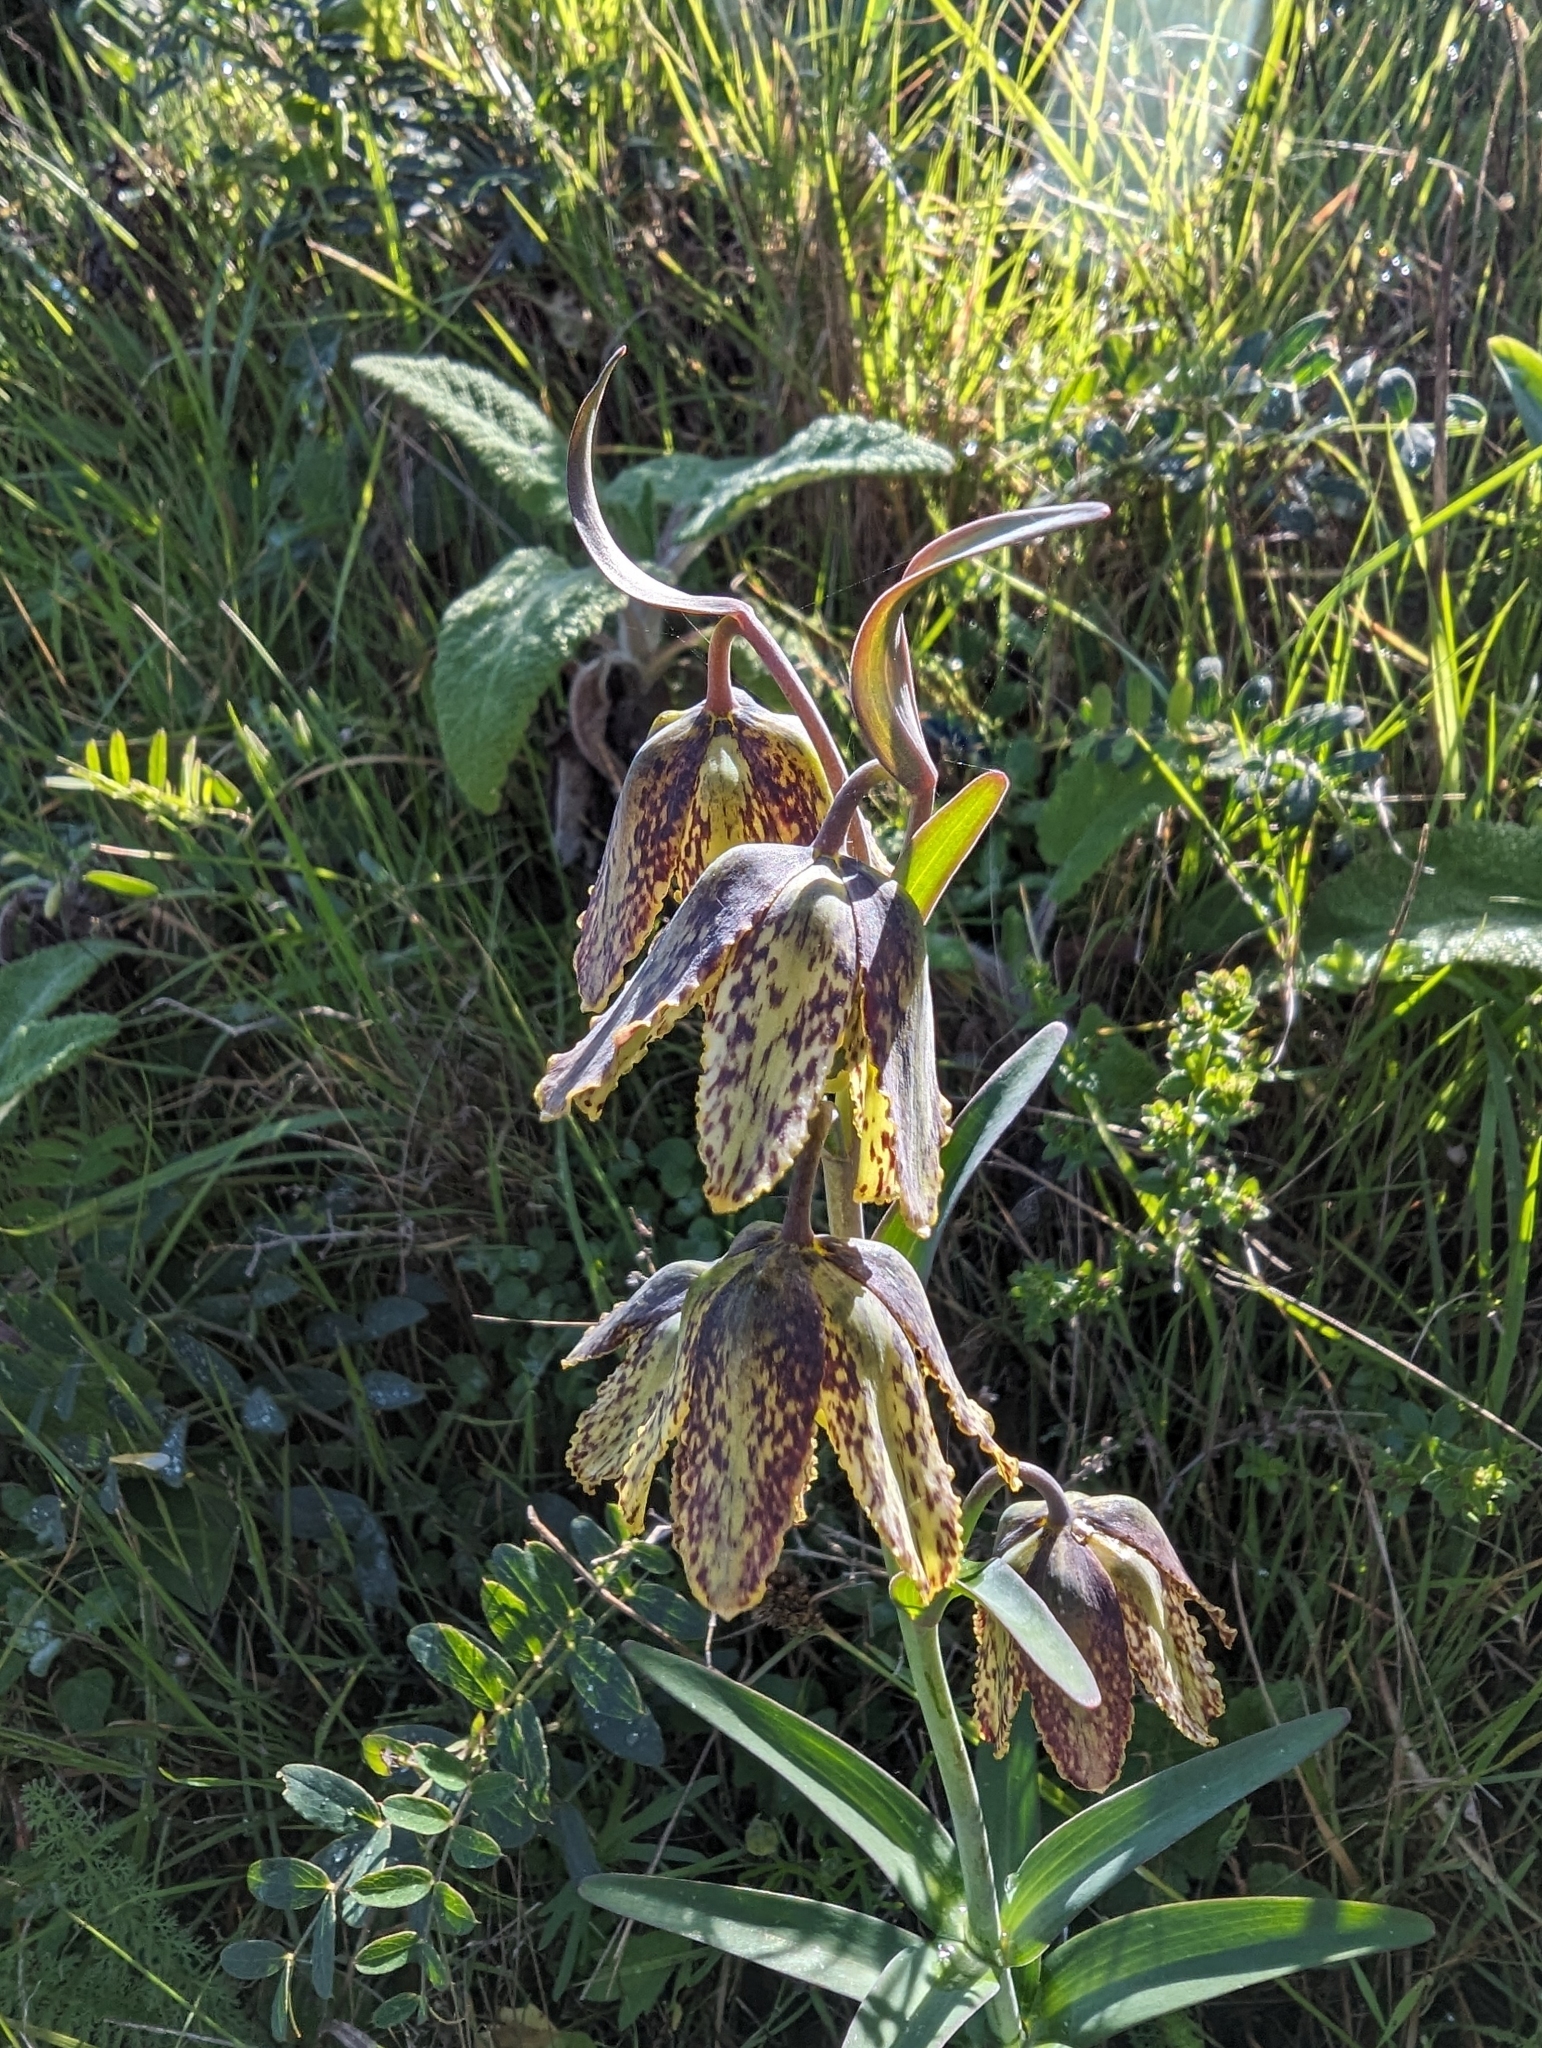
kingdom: Plantae
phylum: Tracheophyta
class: Liliopsida
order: Liliales
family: Liliaceae
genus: Fritillaria
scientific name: Fritillaria affinis
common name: Ojai fritillary
